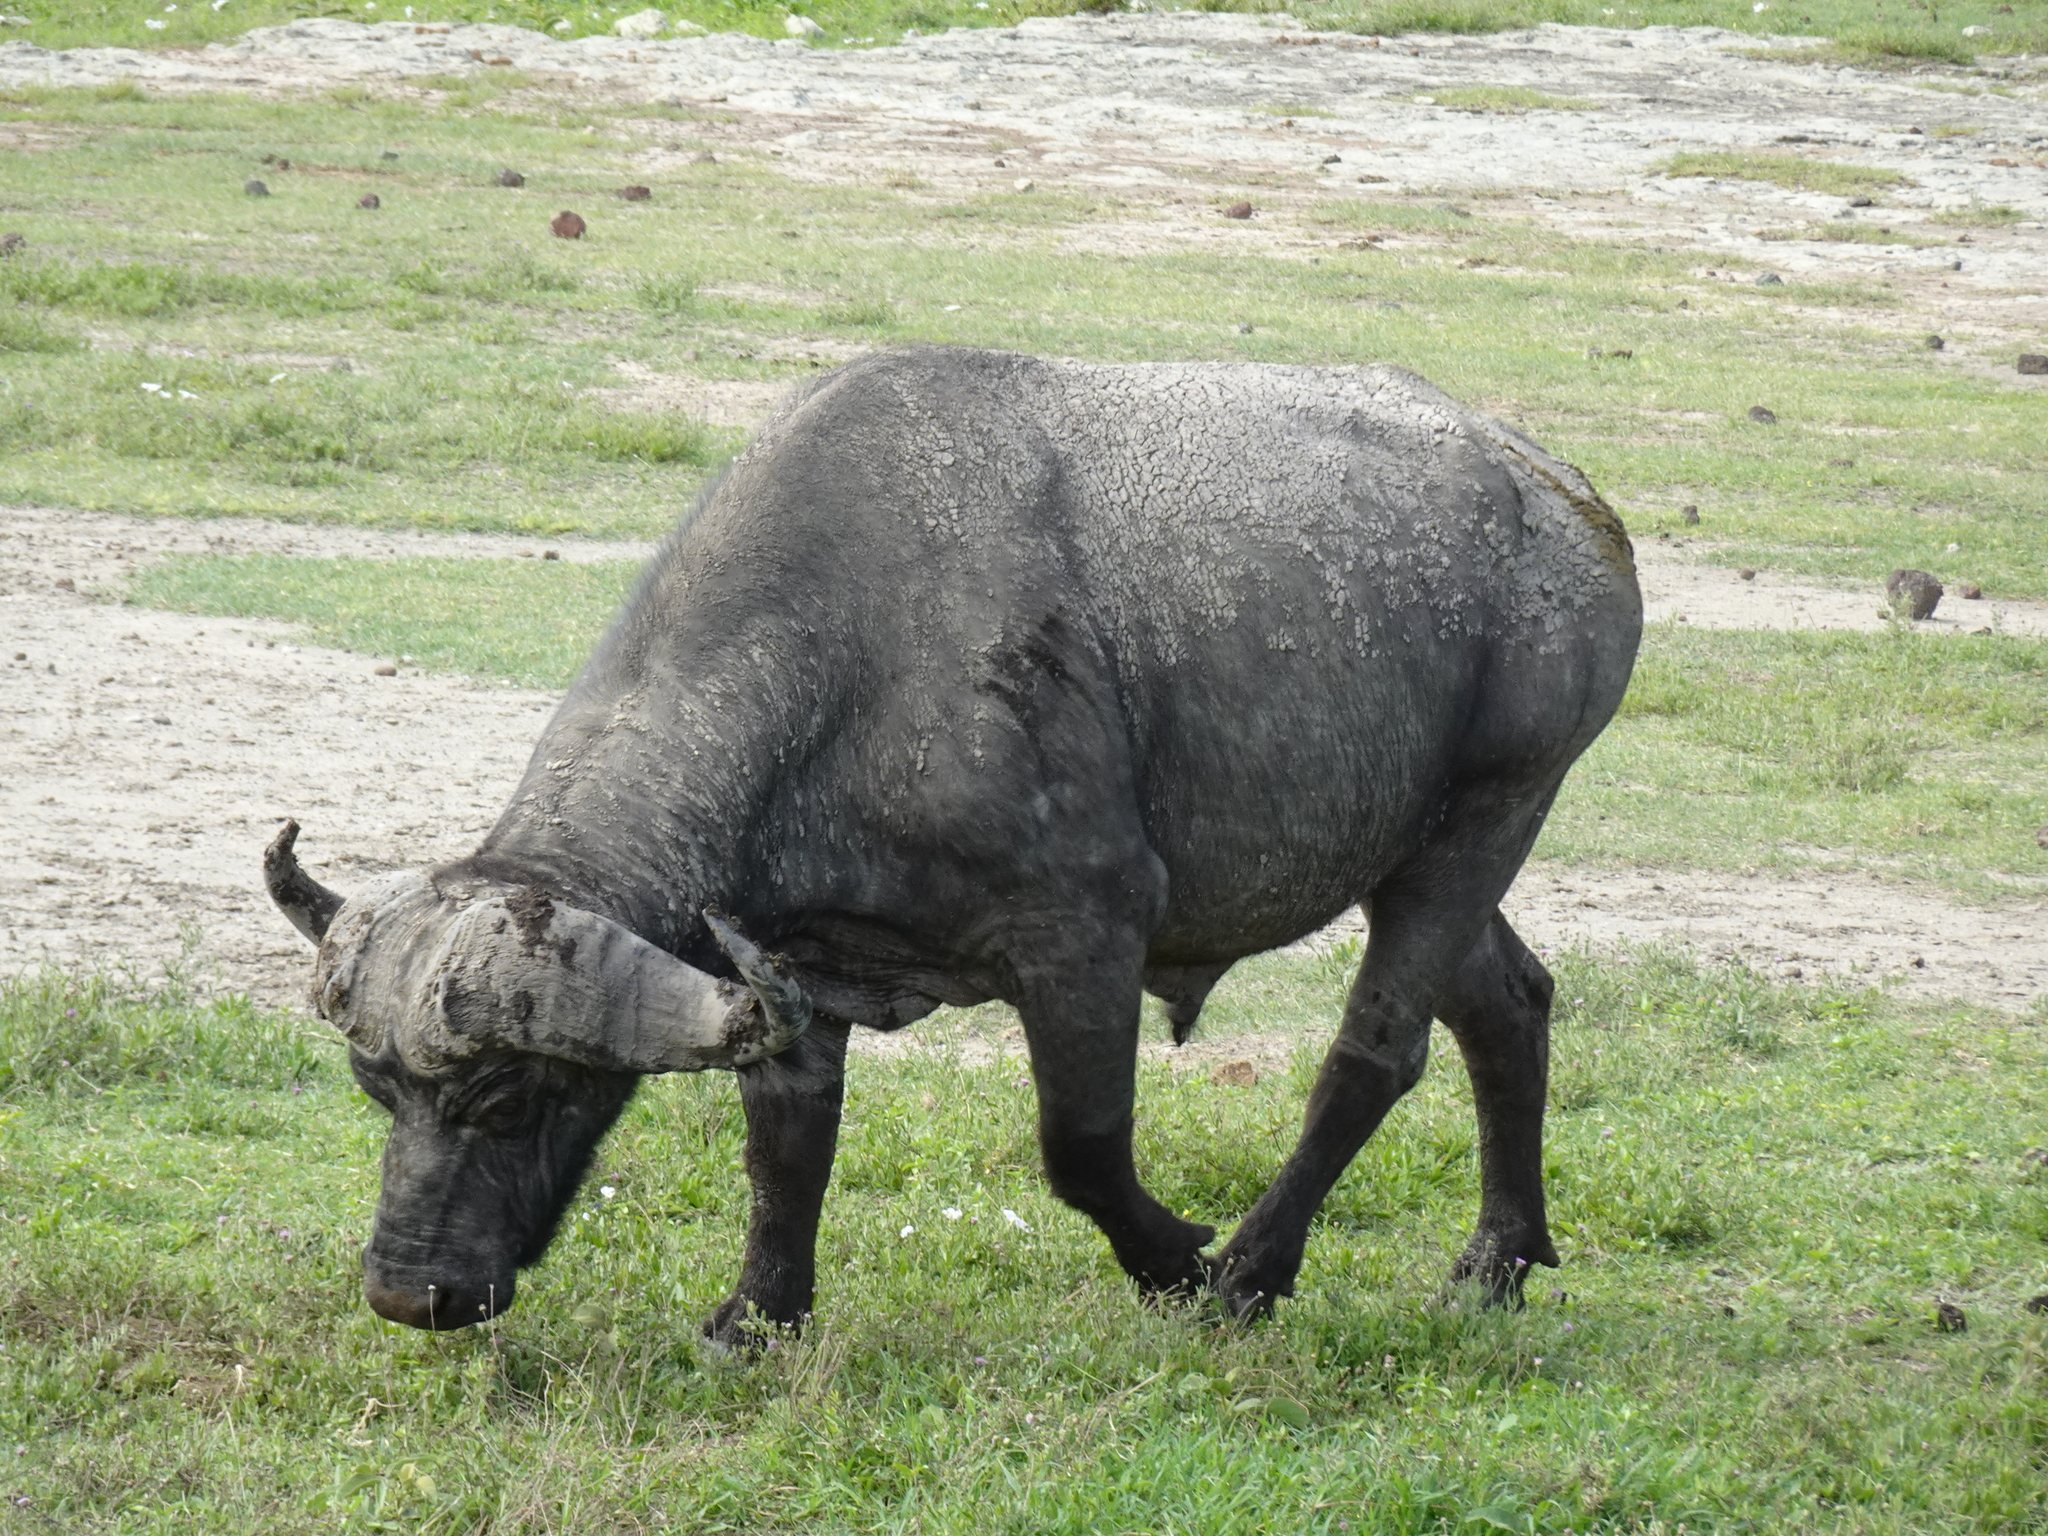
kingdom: Animalia
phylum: Chordata
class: Mammalia
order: Artiodactyla
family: Bovidae
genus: Syncerus
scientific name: Syncerus caffer
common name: African buffalo
